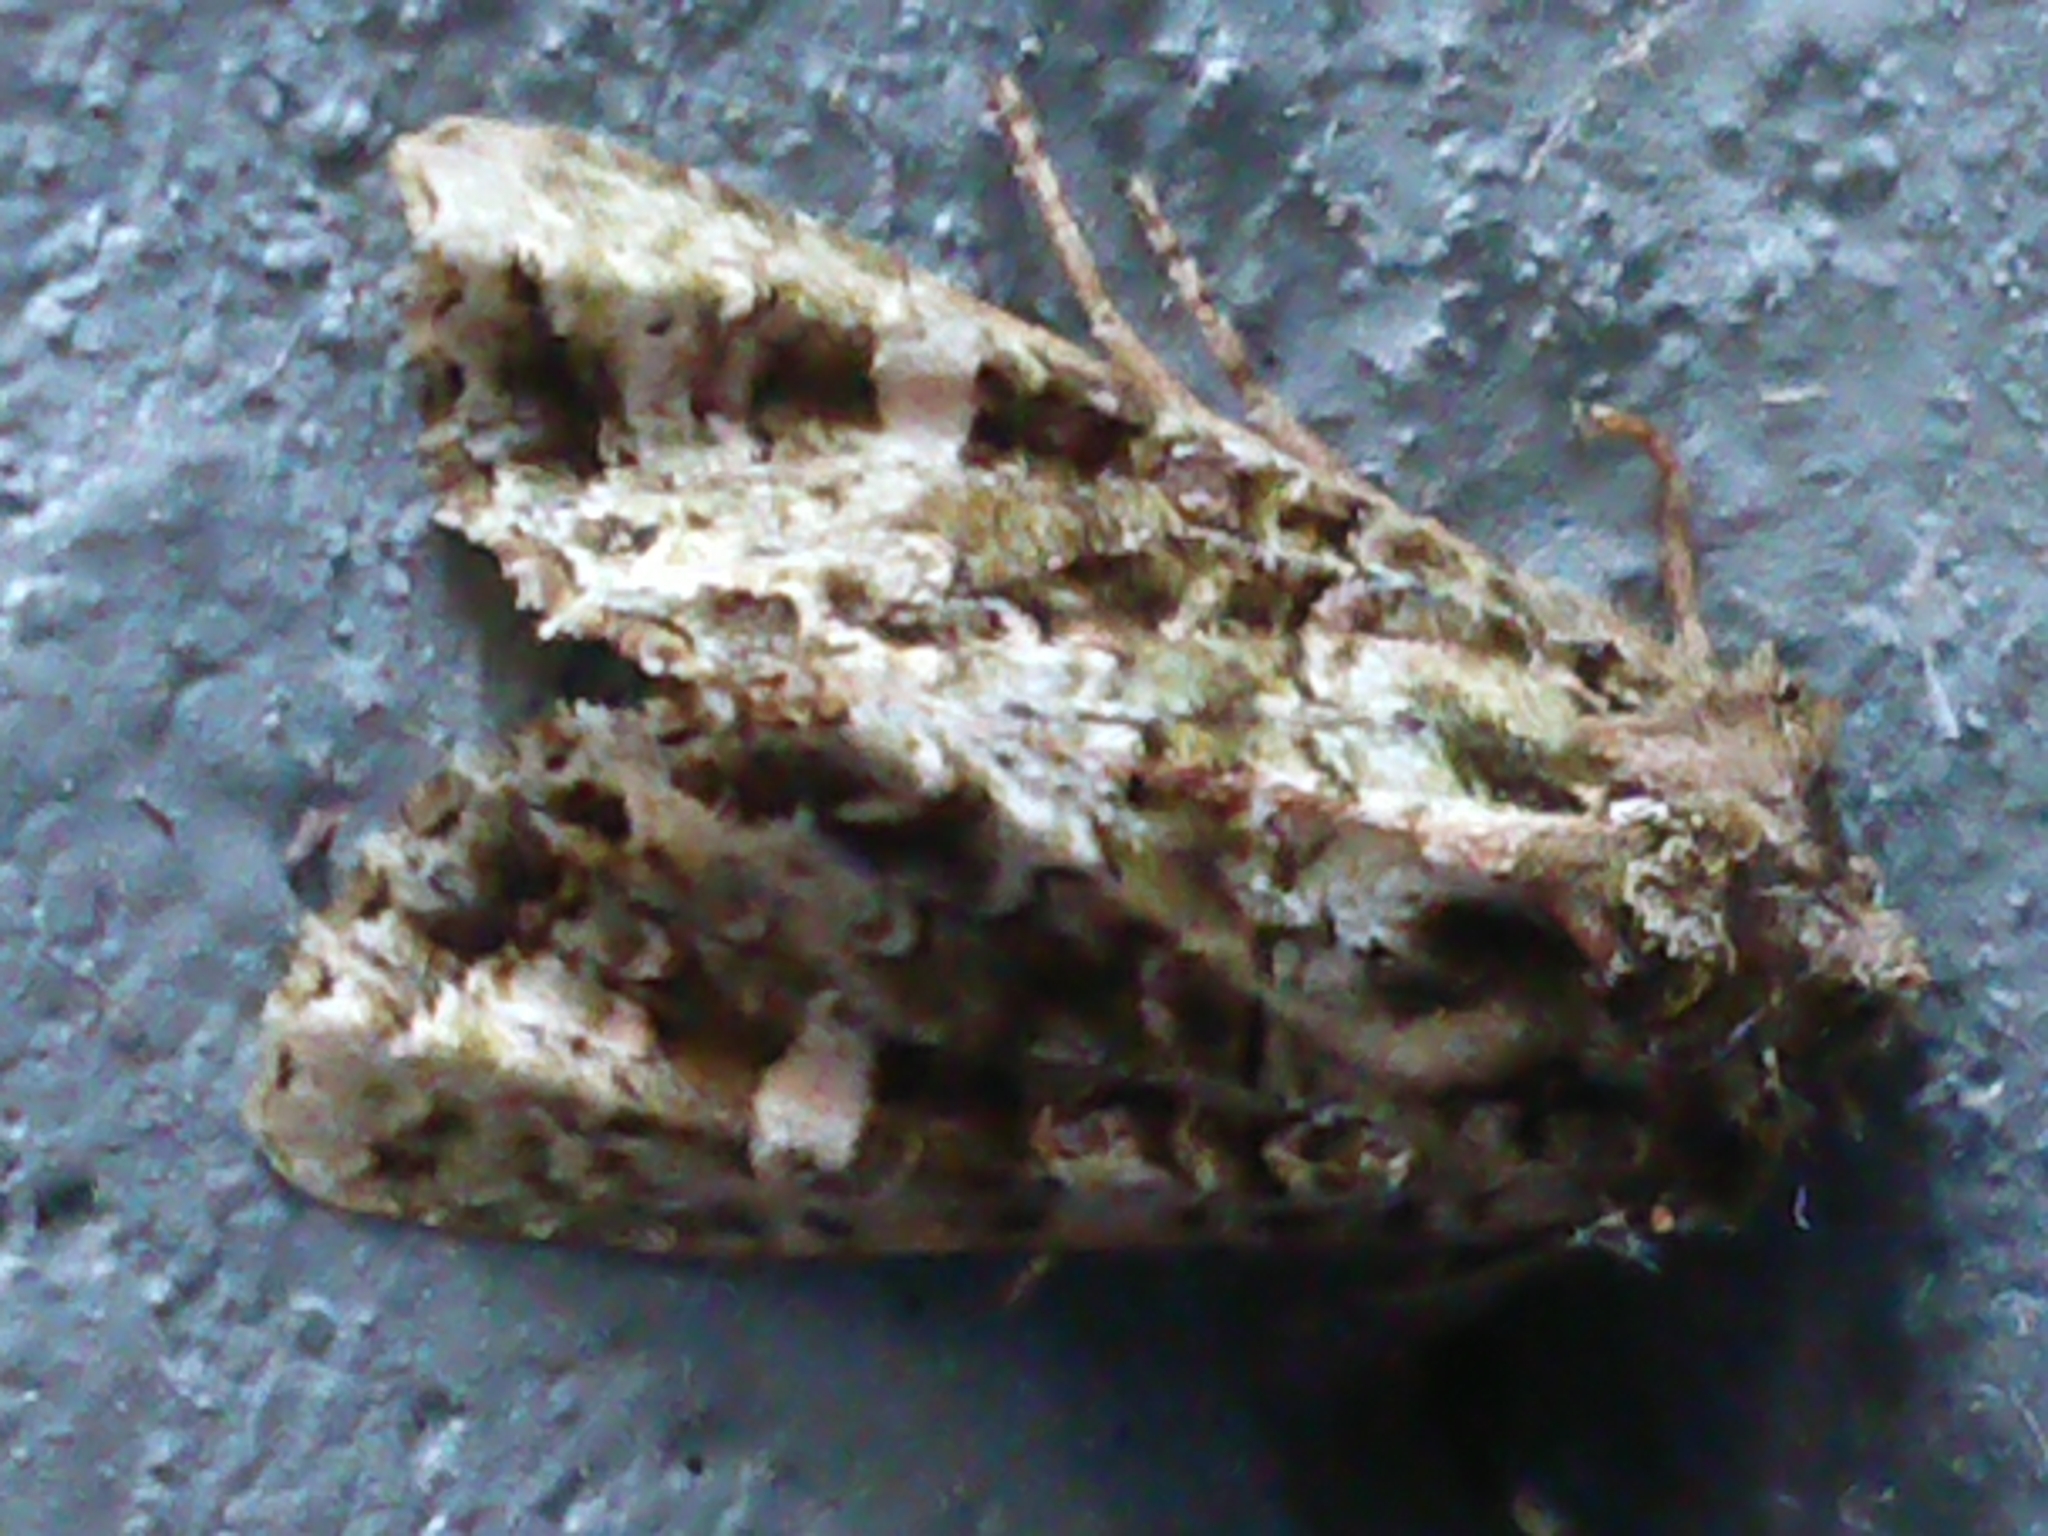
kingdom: Animalia
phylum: Arthropoda
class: Insecta
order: Lepidoptera
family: Noctuidae
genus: Ichneutica
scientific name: Ichneutica
